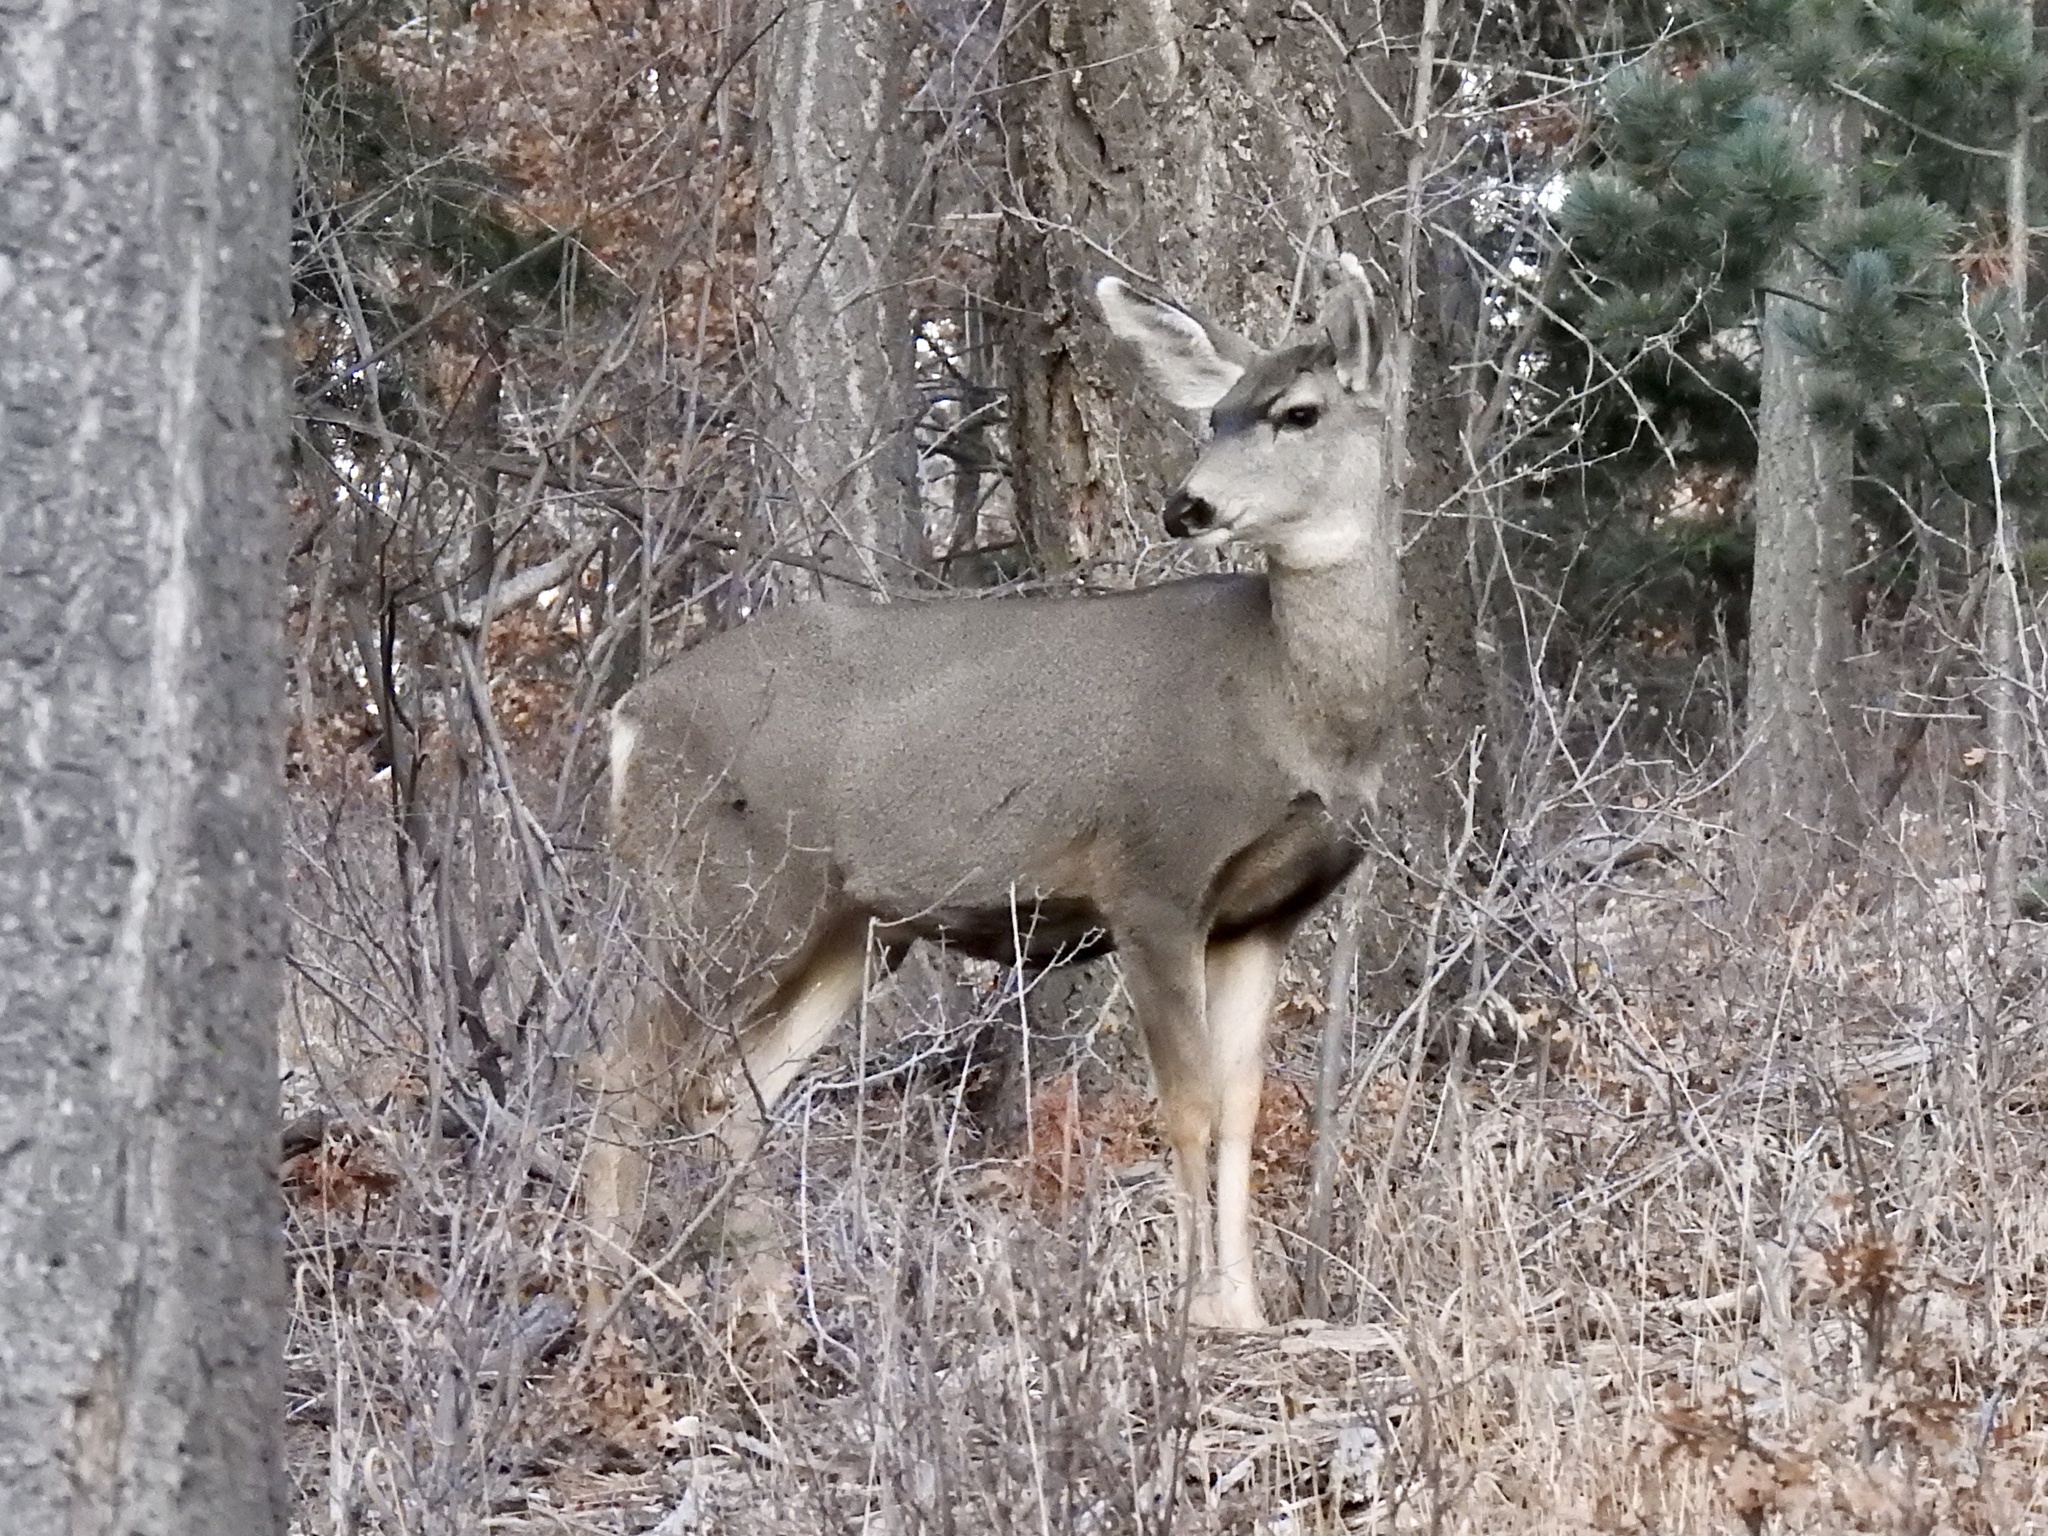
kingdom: Animalia
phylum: Chordata
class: Mammalia
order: Artiodactyla
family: Cervidae
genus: Odocoileus
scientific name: Odocoileus hemionus
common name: Mule deer
